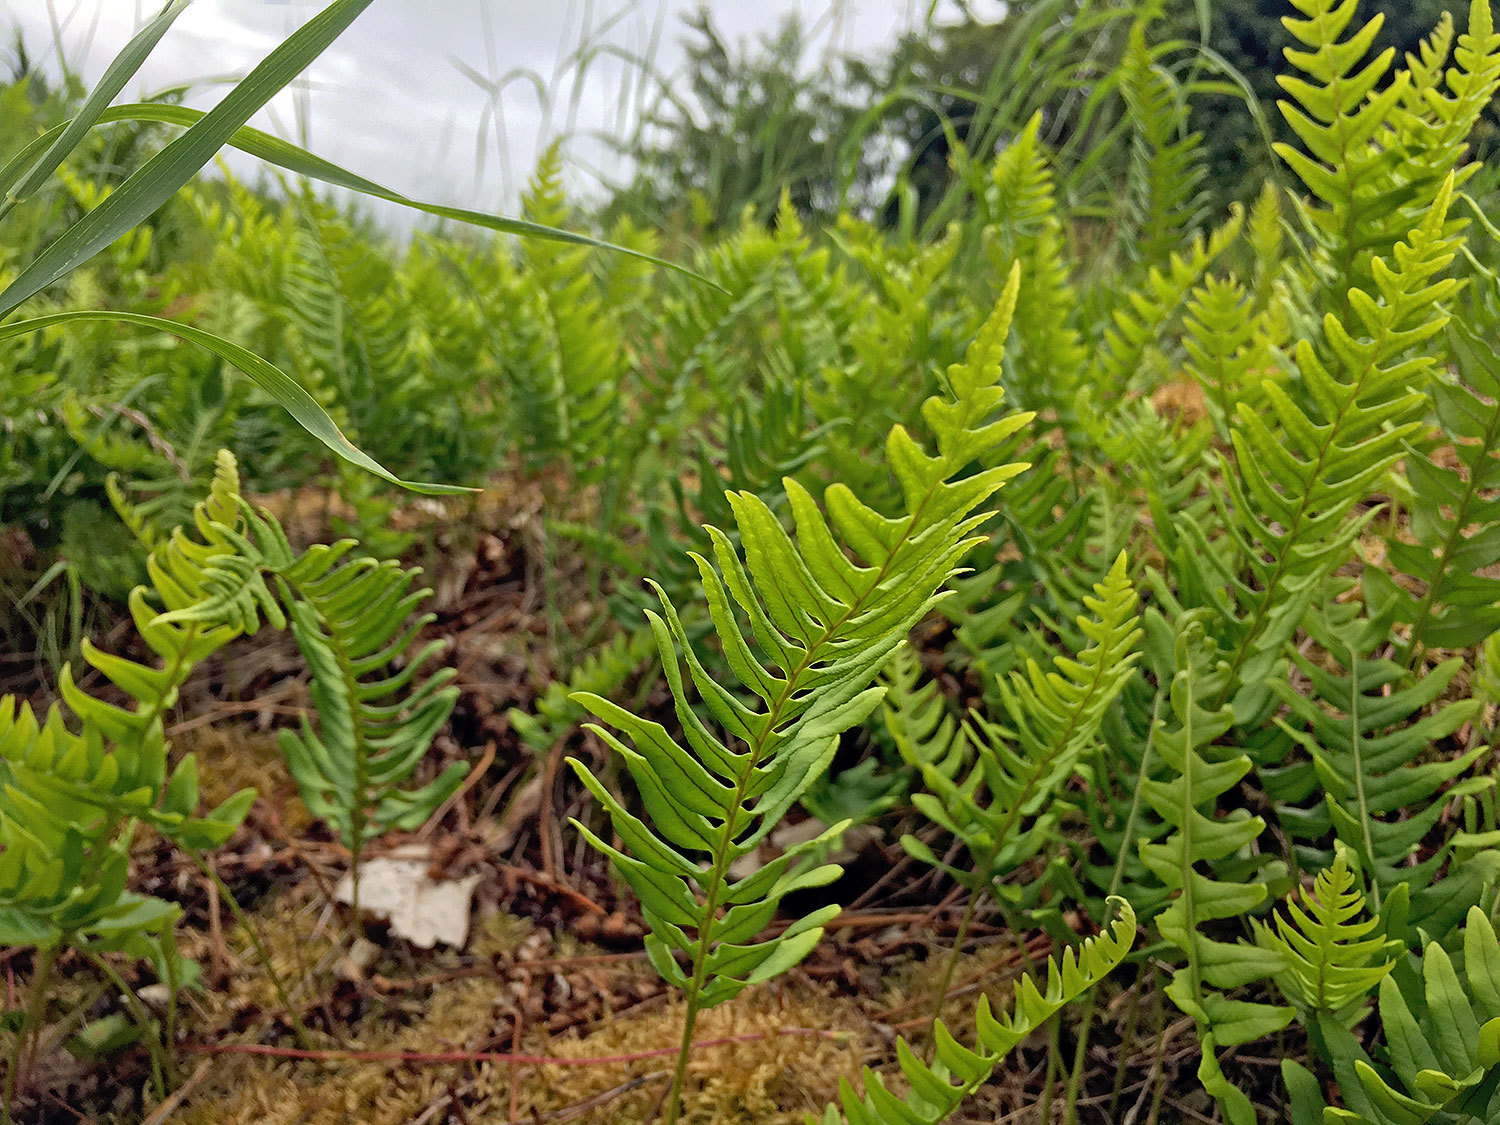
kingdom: Plantae
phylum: Tracheophyta
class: Polypodiopsida
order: Polypodiales
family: Polypodiaceae
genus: Polypodium
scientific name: Polypodium vulgare
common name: Common polypody
